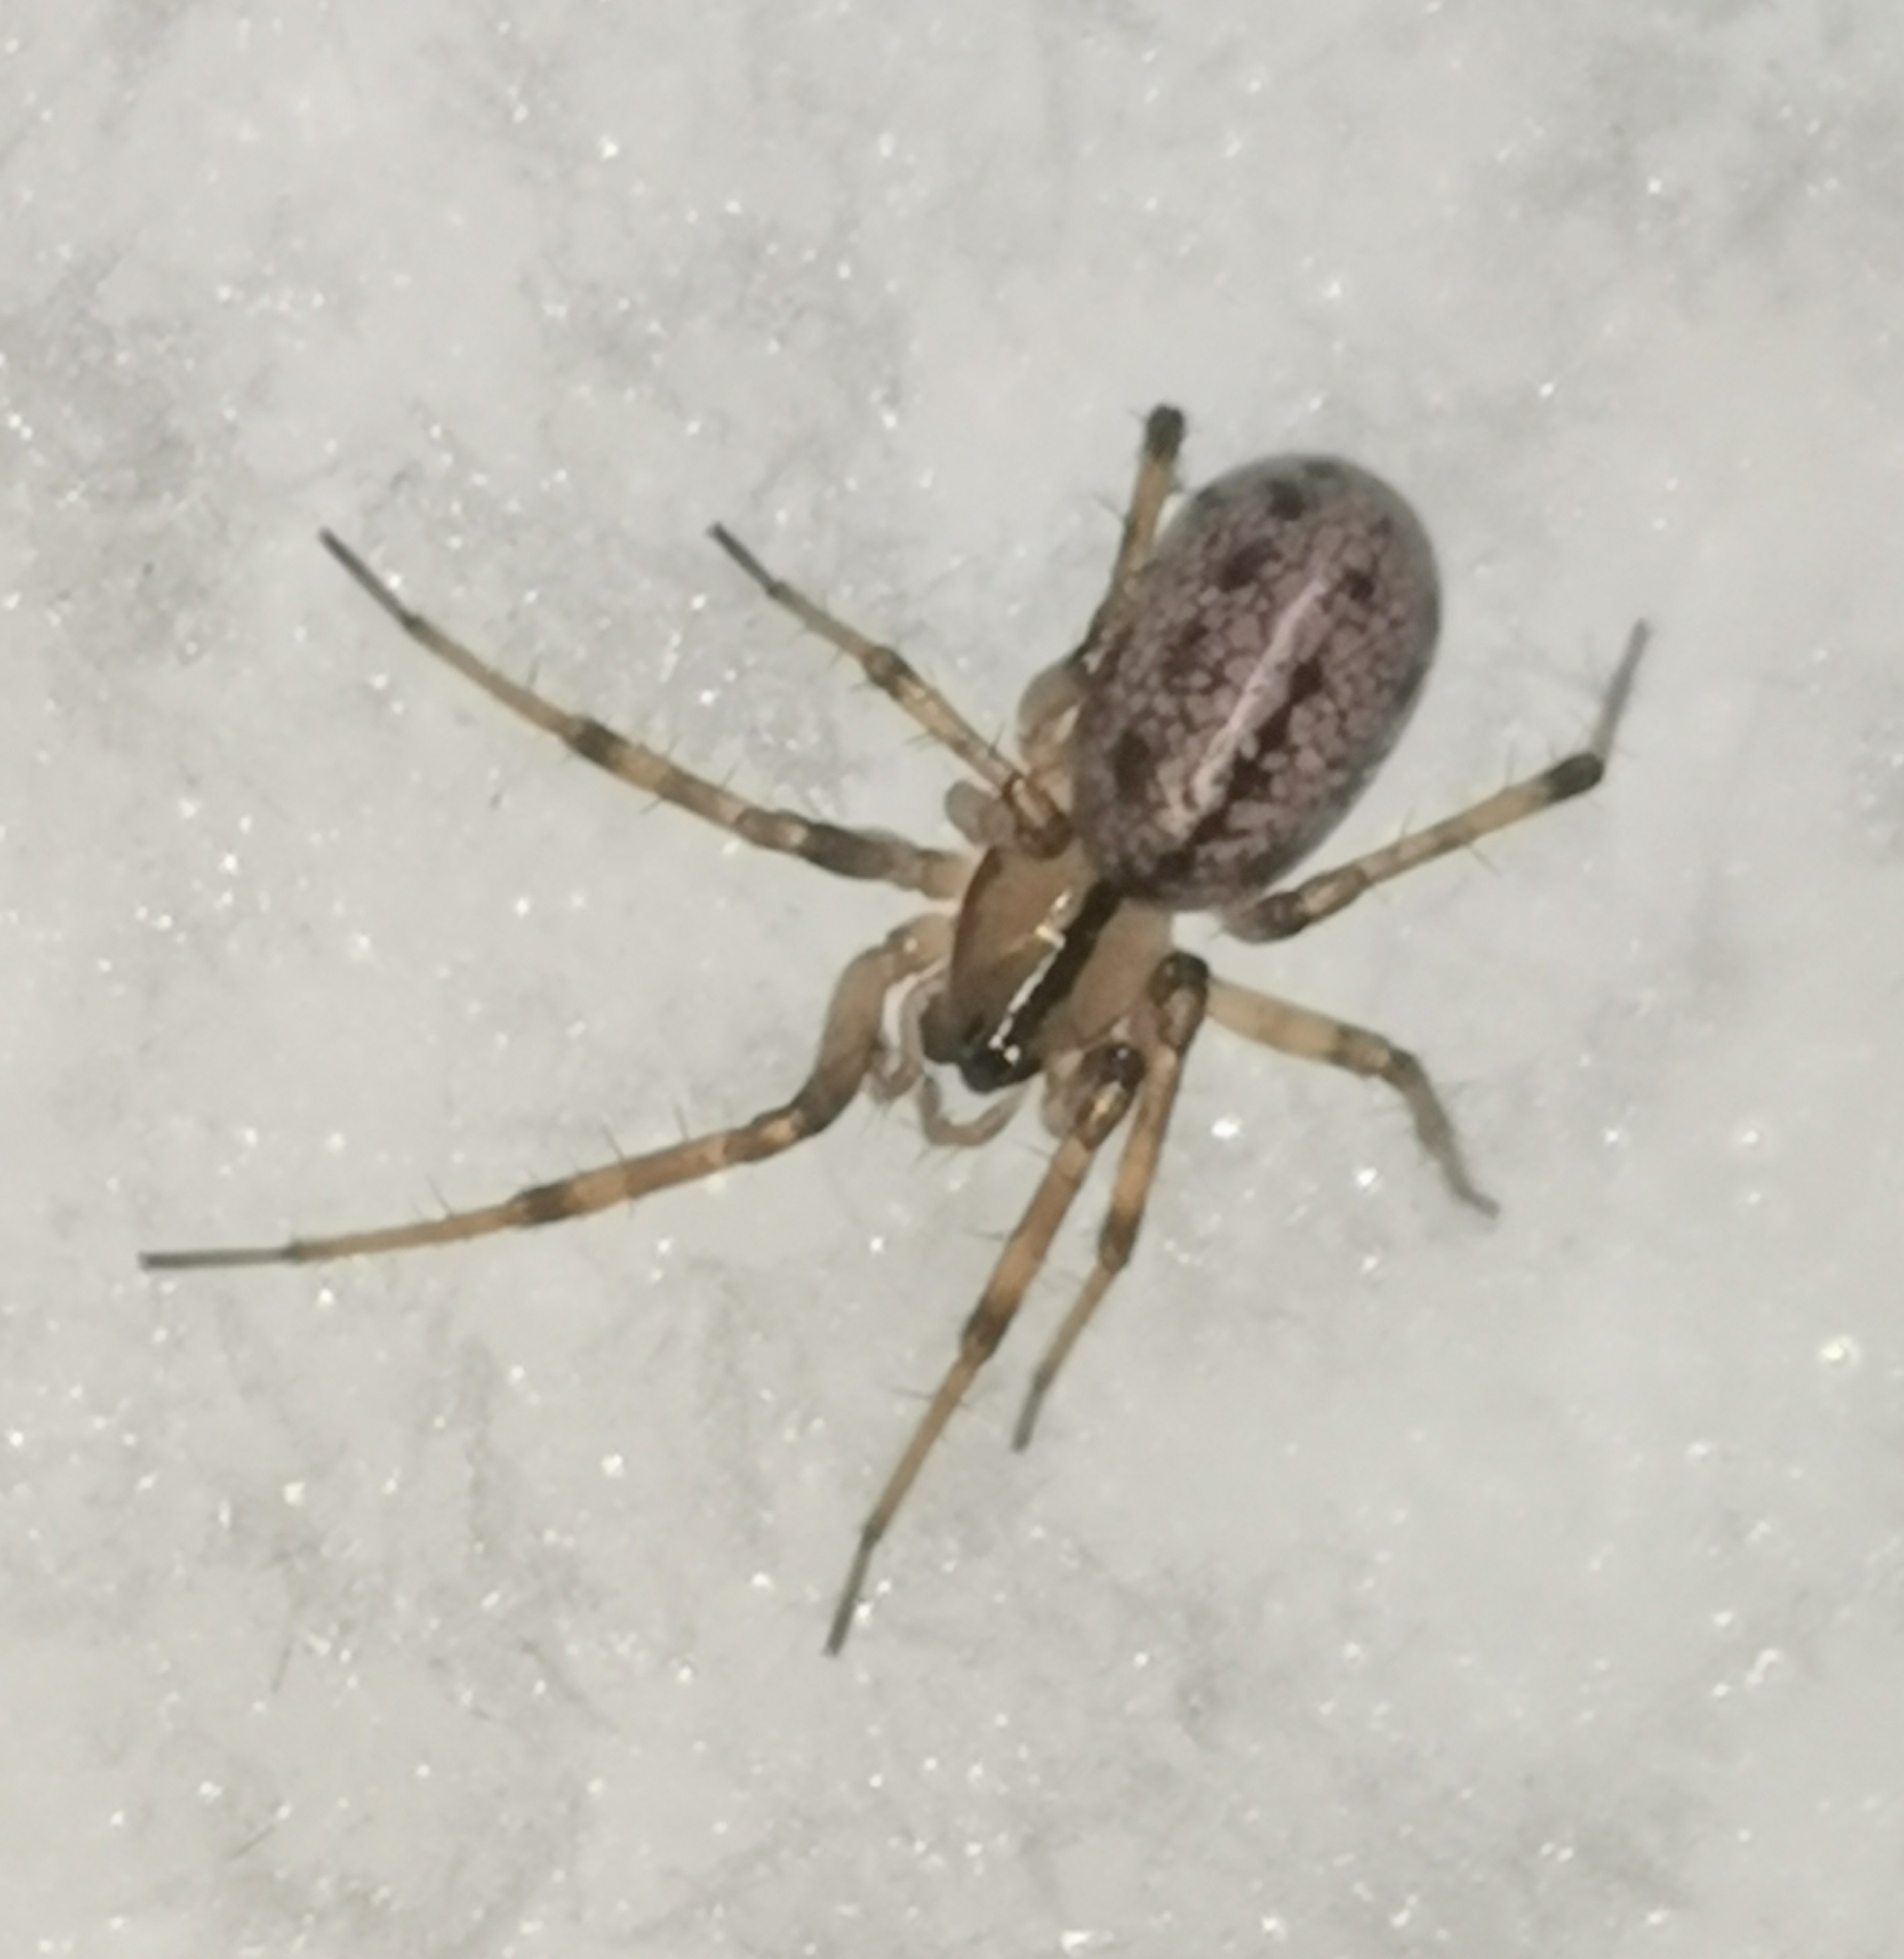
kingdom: Animalia
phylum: Arthropoda
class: Arachnida
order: Araneae
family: Linyphiidae
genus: Stemonyphantes
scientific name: Stemonyphantes lineatus
